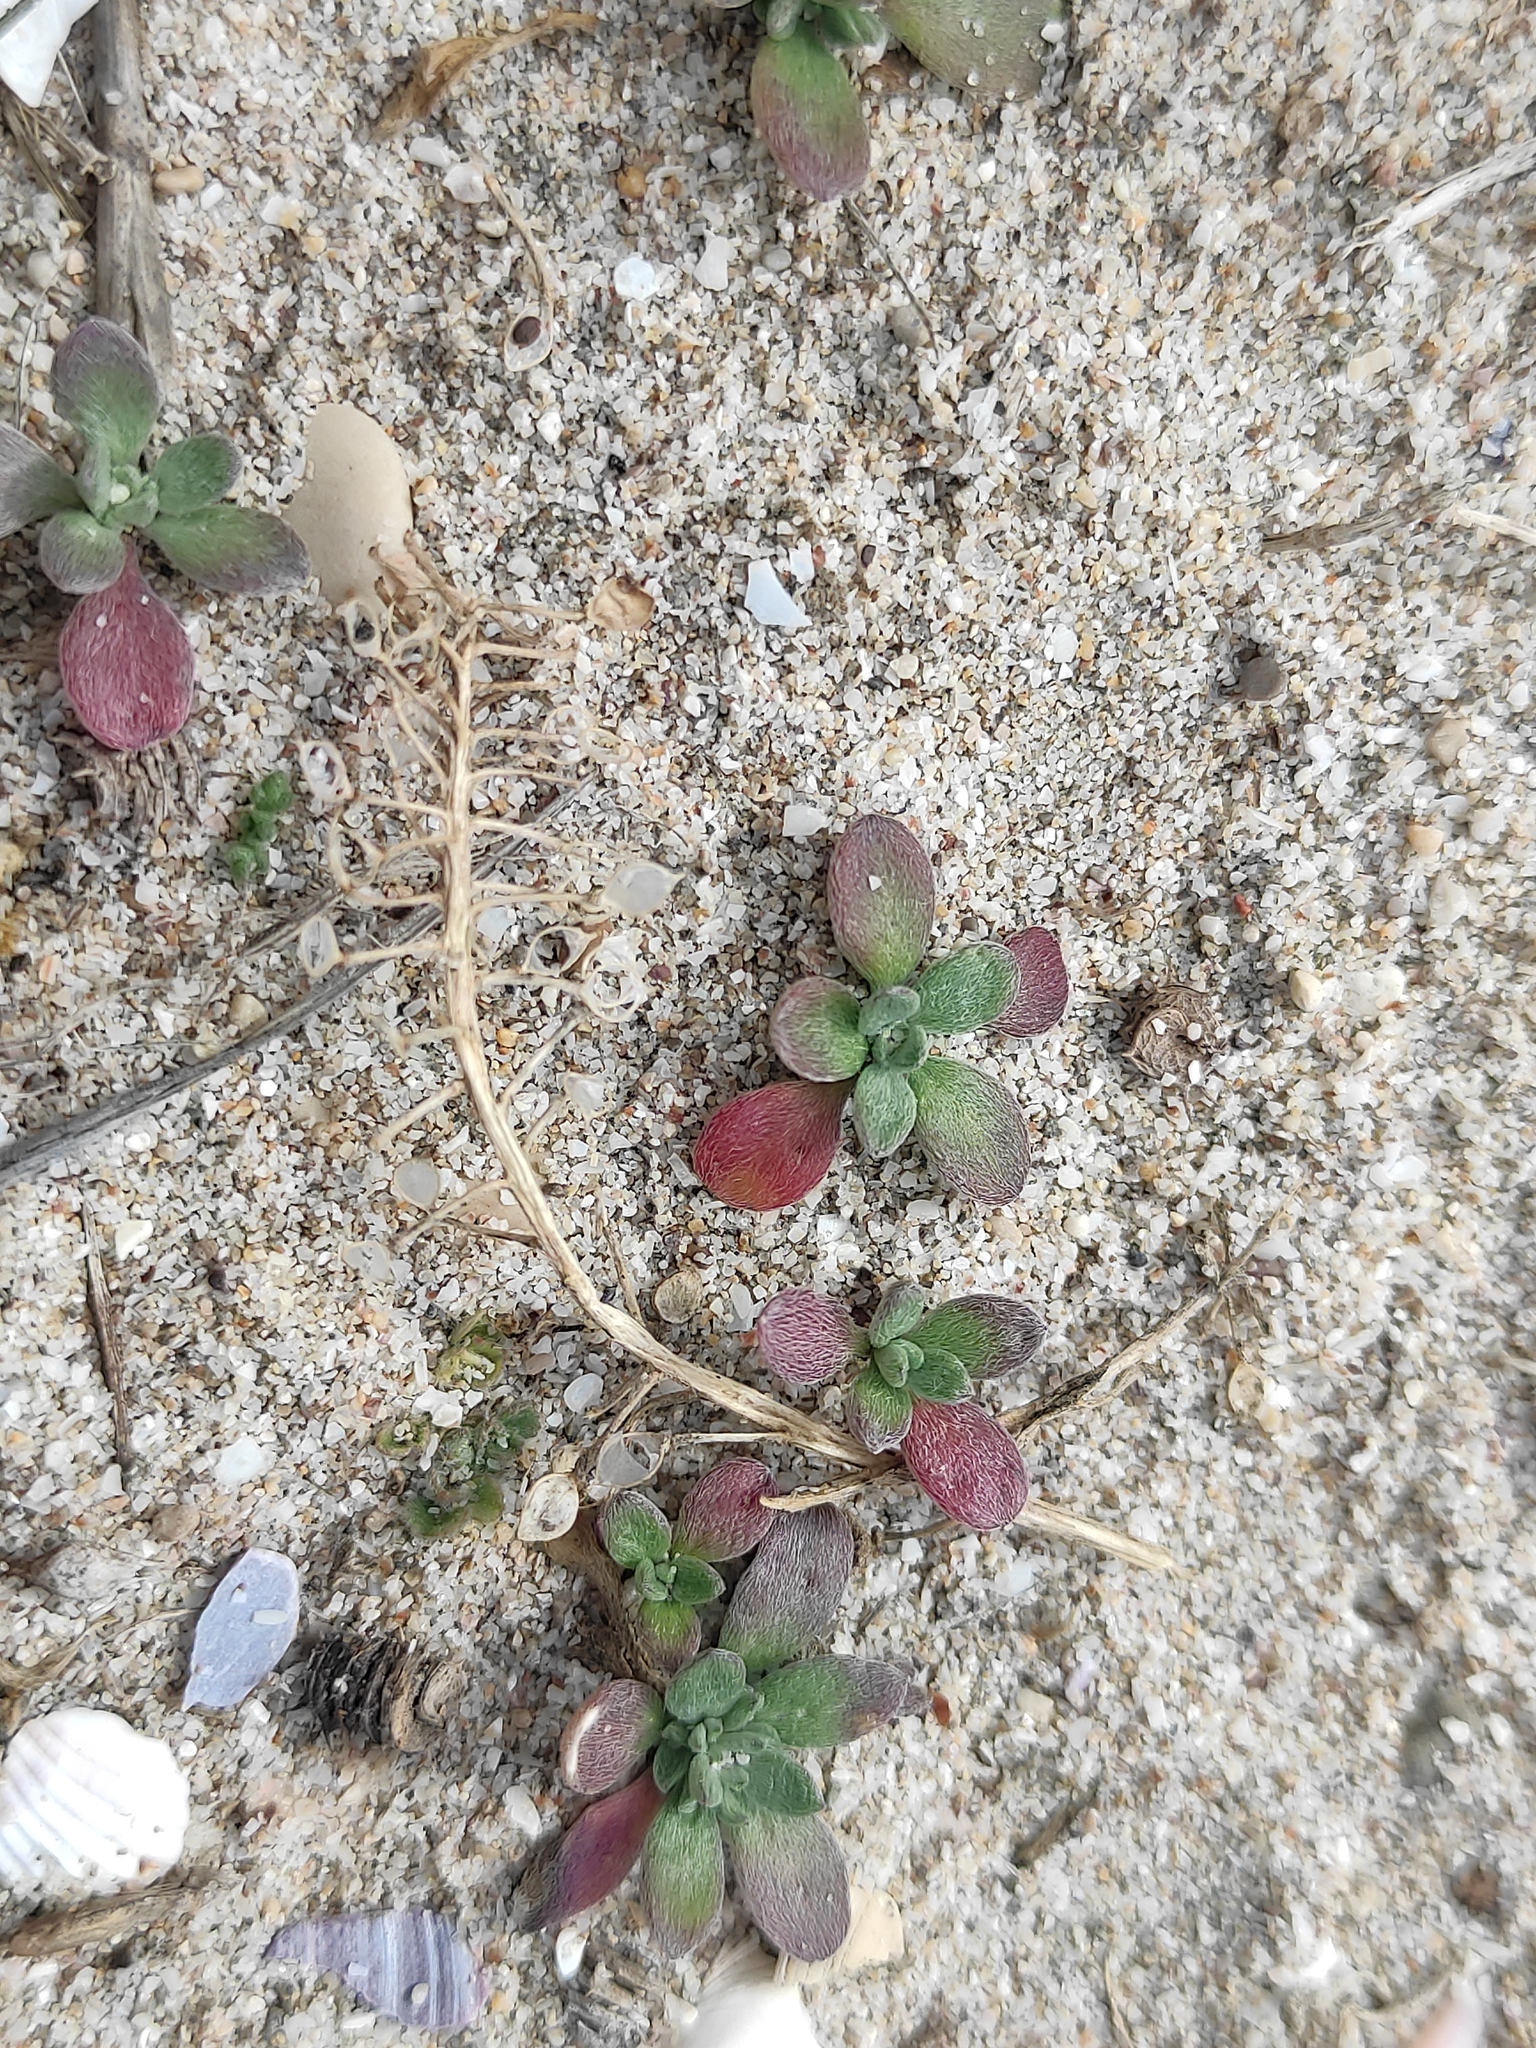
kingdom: Plantae
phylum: Tracheophyta
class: Magnoliopsida
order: Brassicales
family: Brassicaceae
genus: Lobularia
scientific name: Lobularia maritima
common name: Sweet alison
